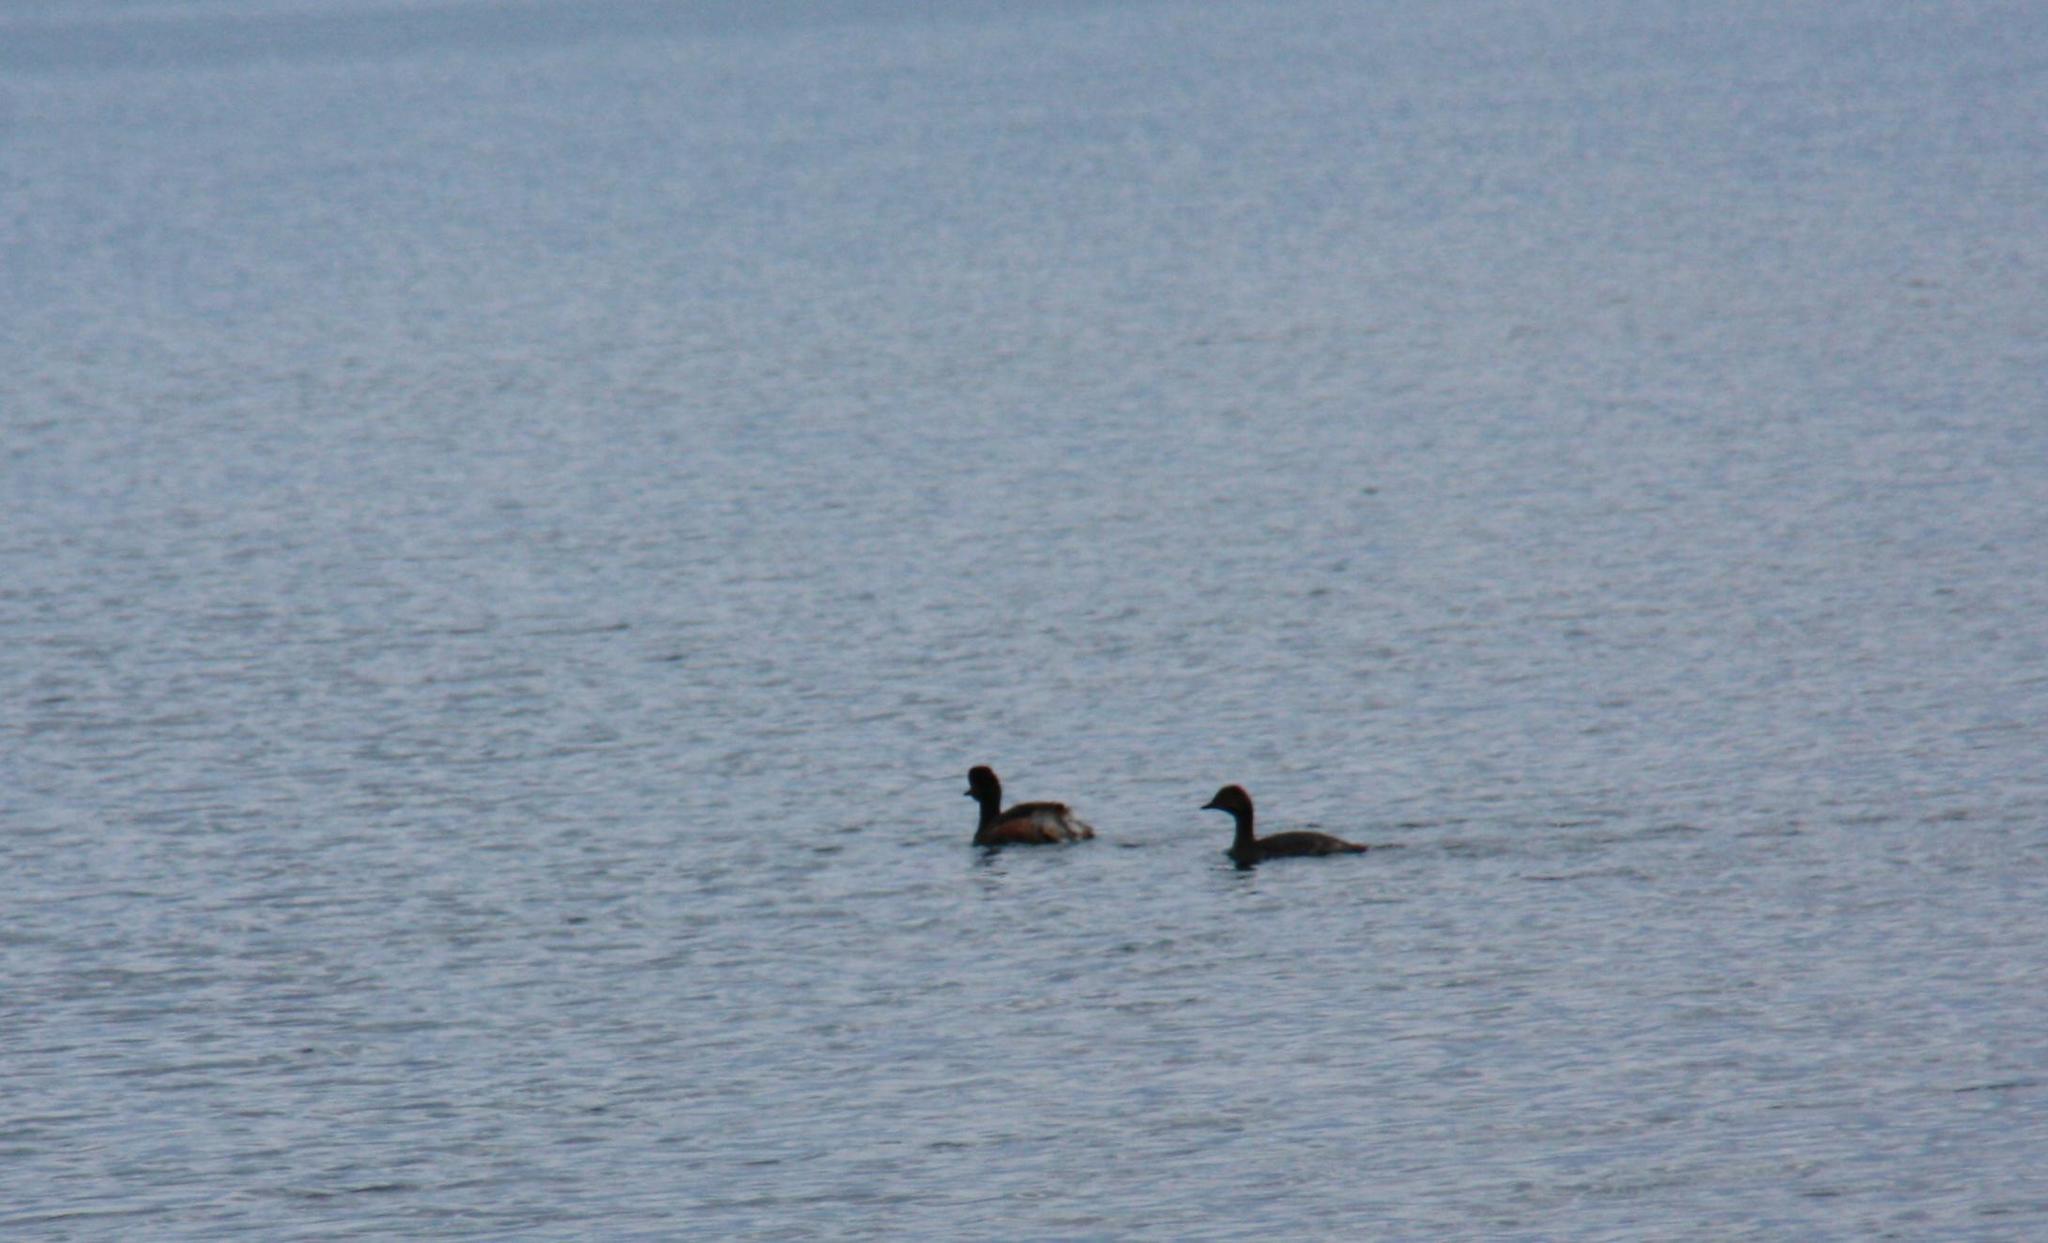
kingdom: Animalia
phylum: Chordata
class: Aves
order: Podicipediformes
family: Podicipedidae
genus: Podiceps
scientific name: Podiceps nigricollis
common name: Black-necked grebe
